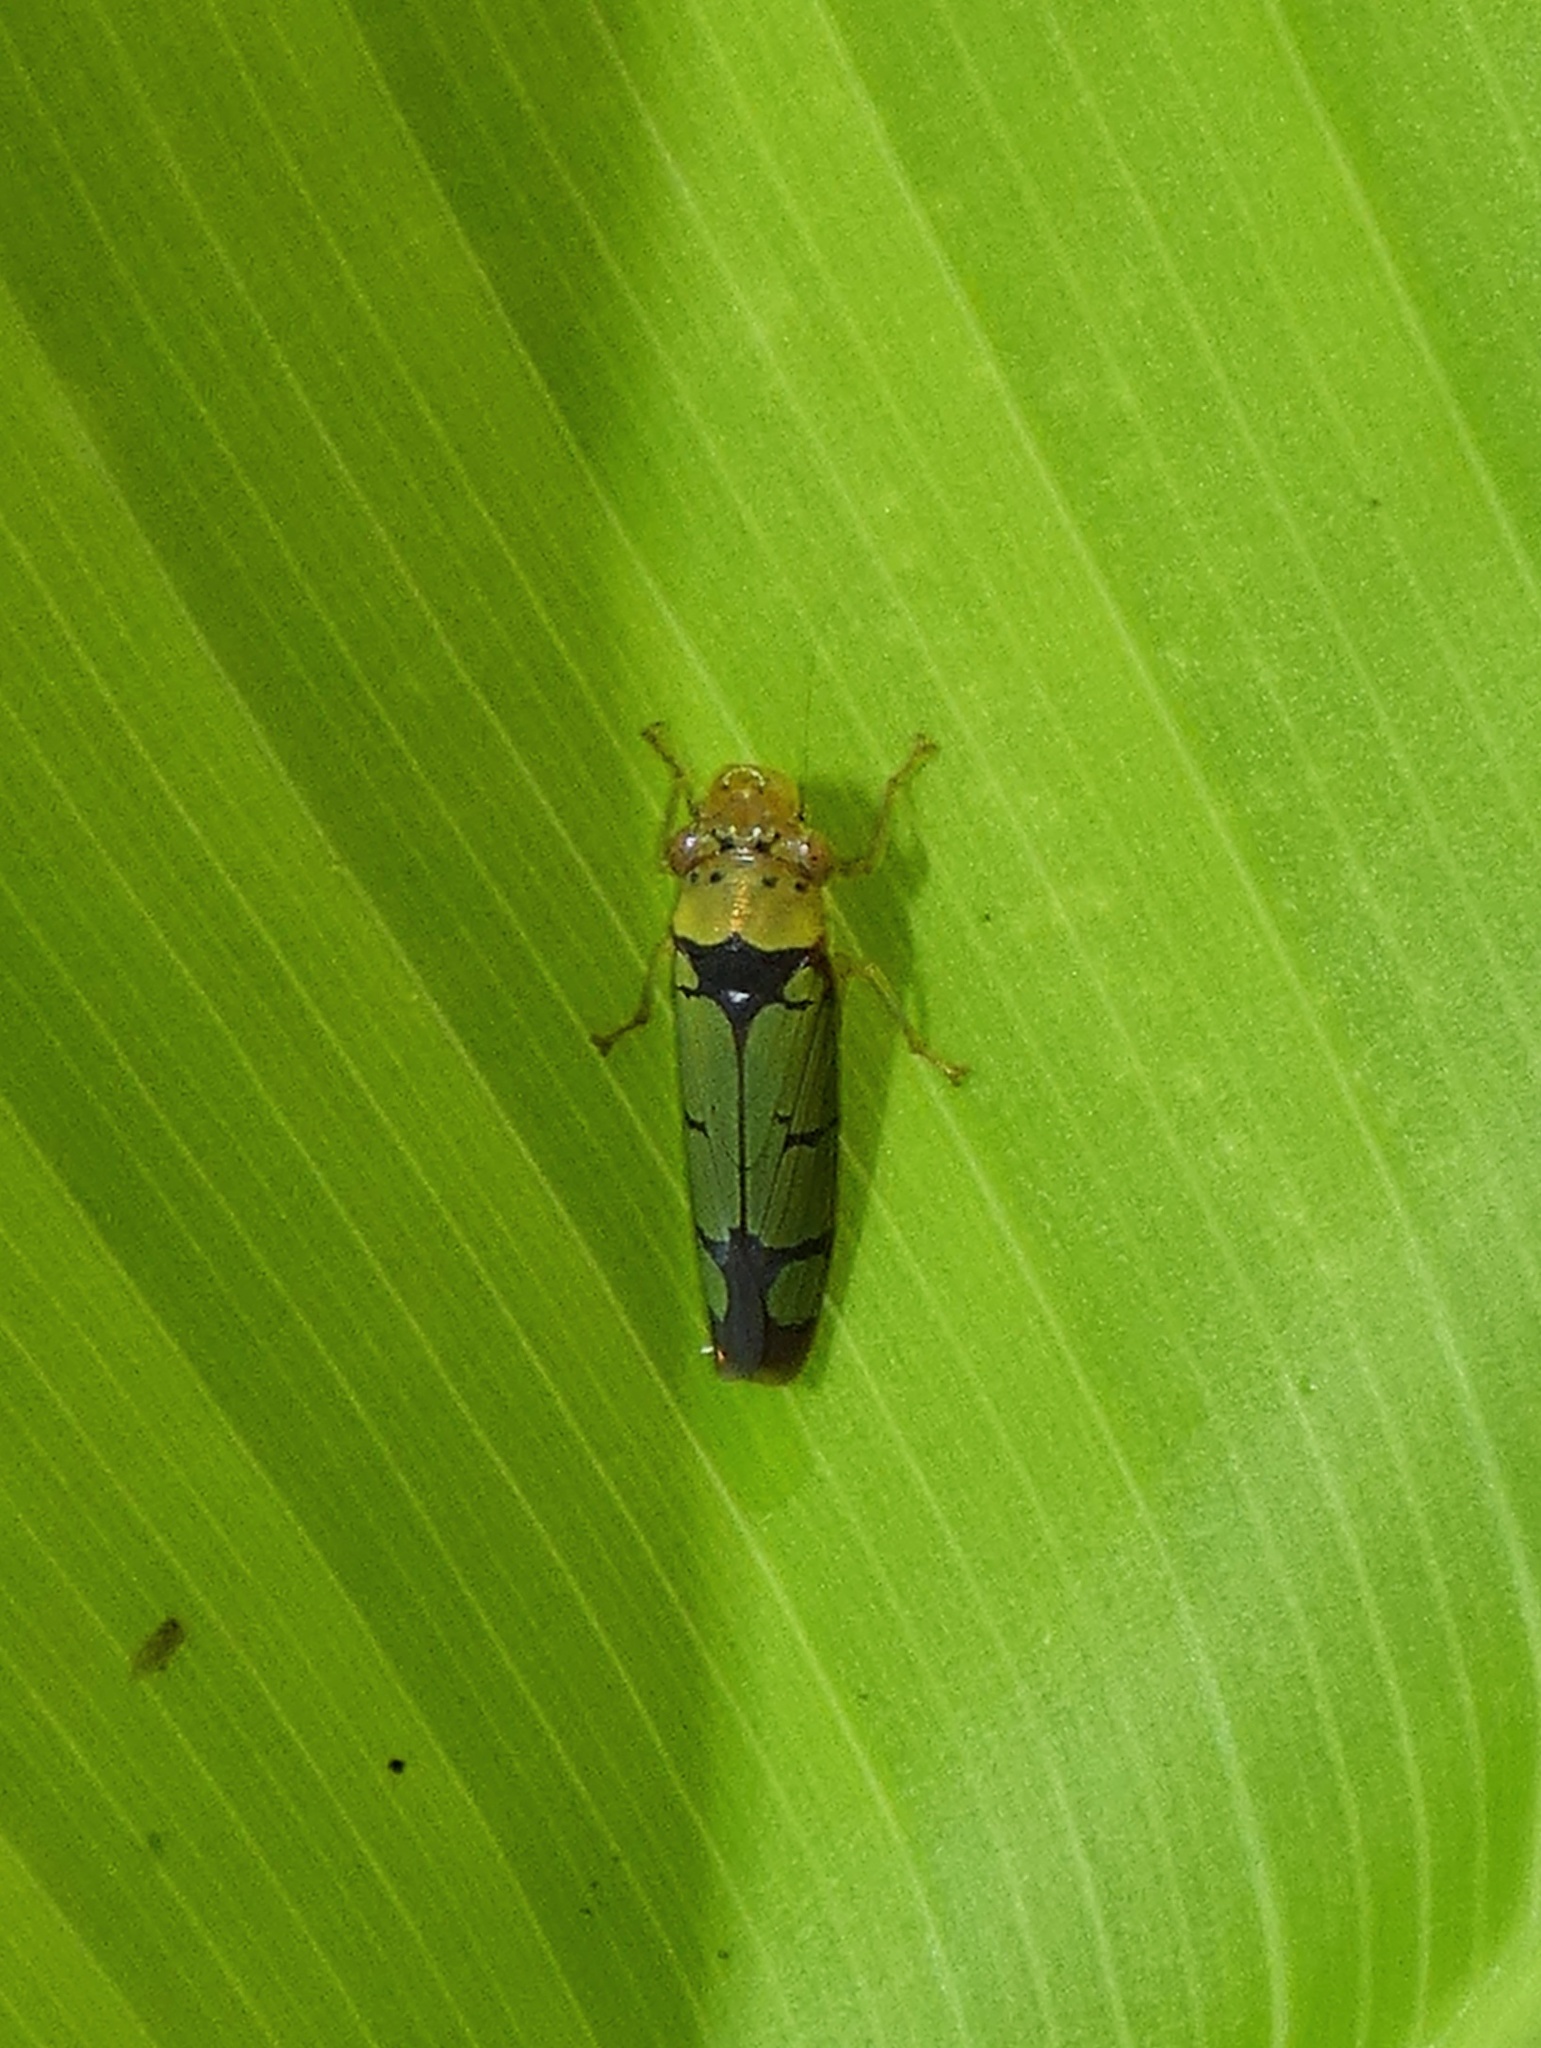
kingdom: Animalia
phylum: Arthropoda
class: Insecta
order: Hemiptera
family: Cicadellidae
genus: Paraulacizes
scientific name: Paraulacizes panamensis
